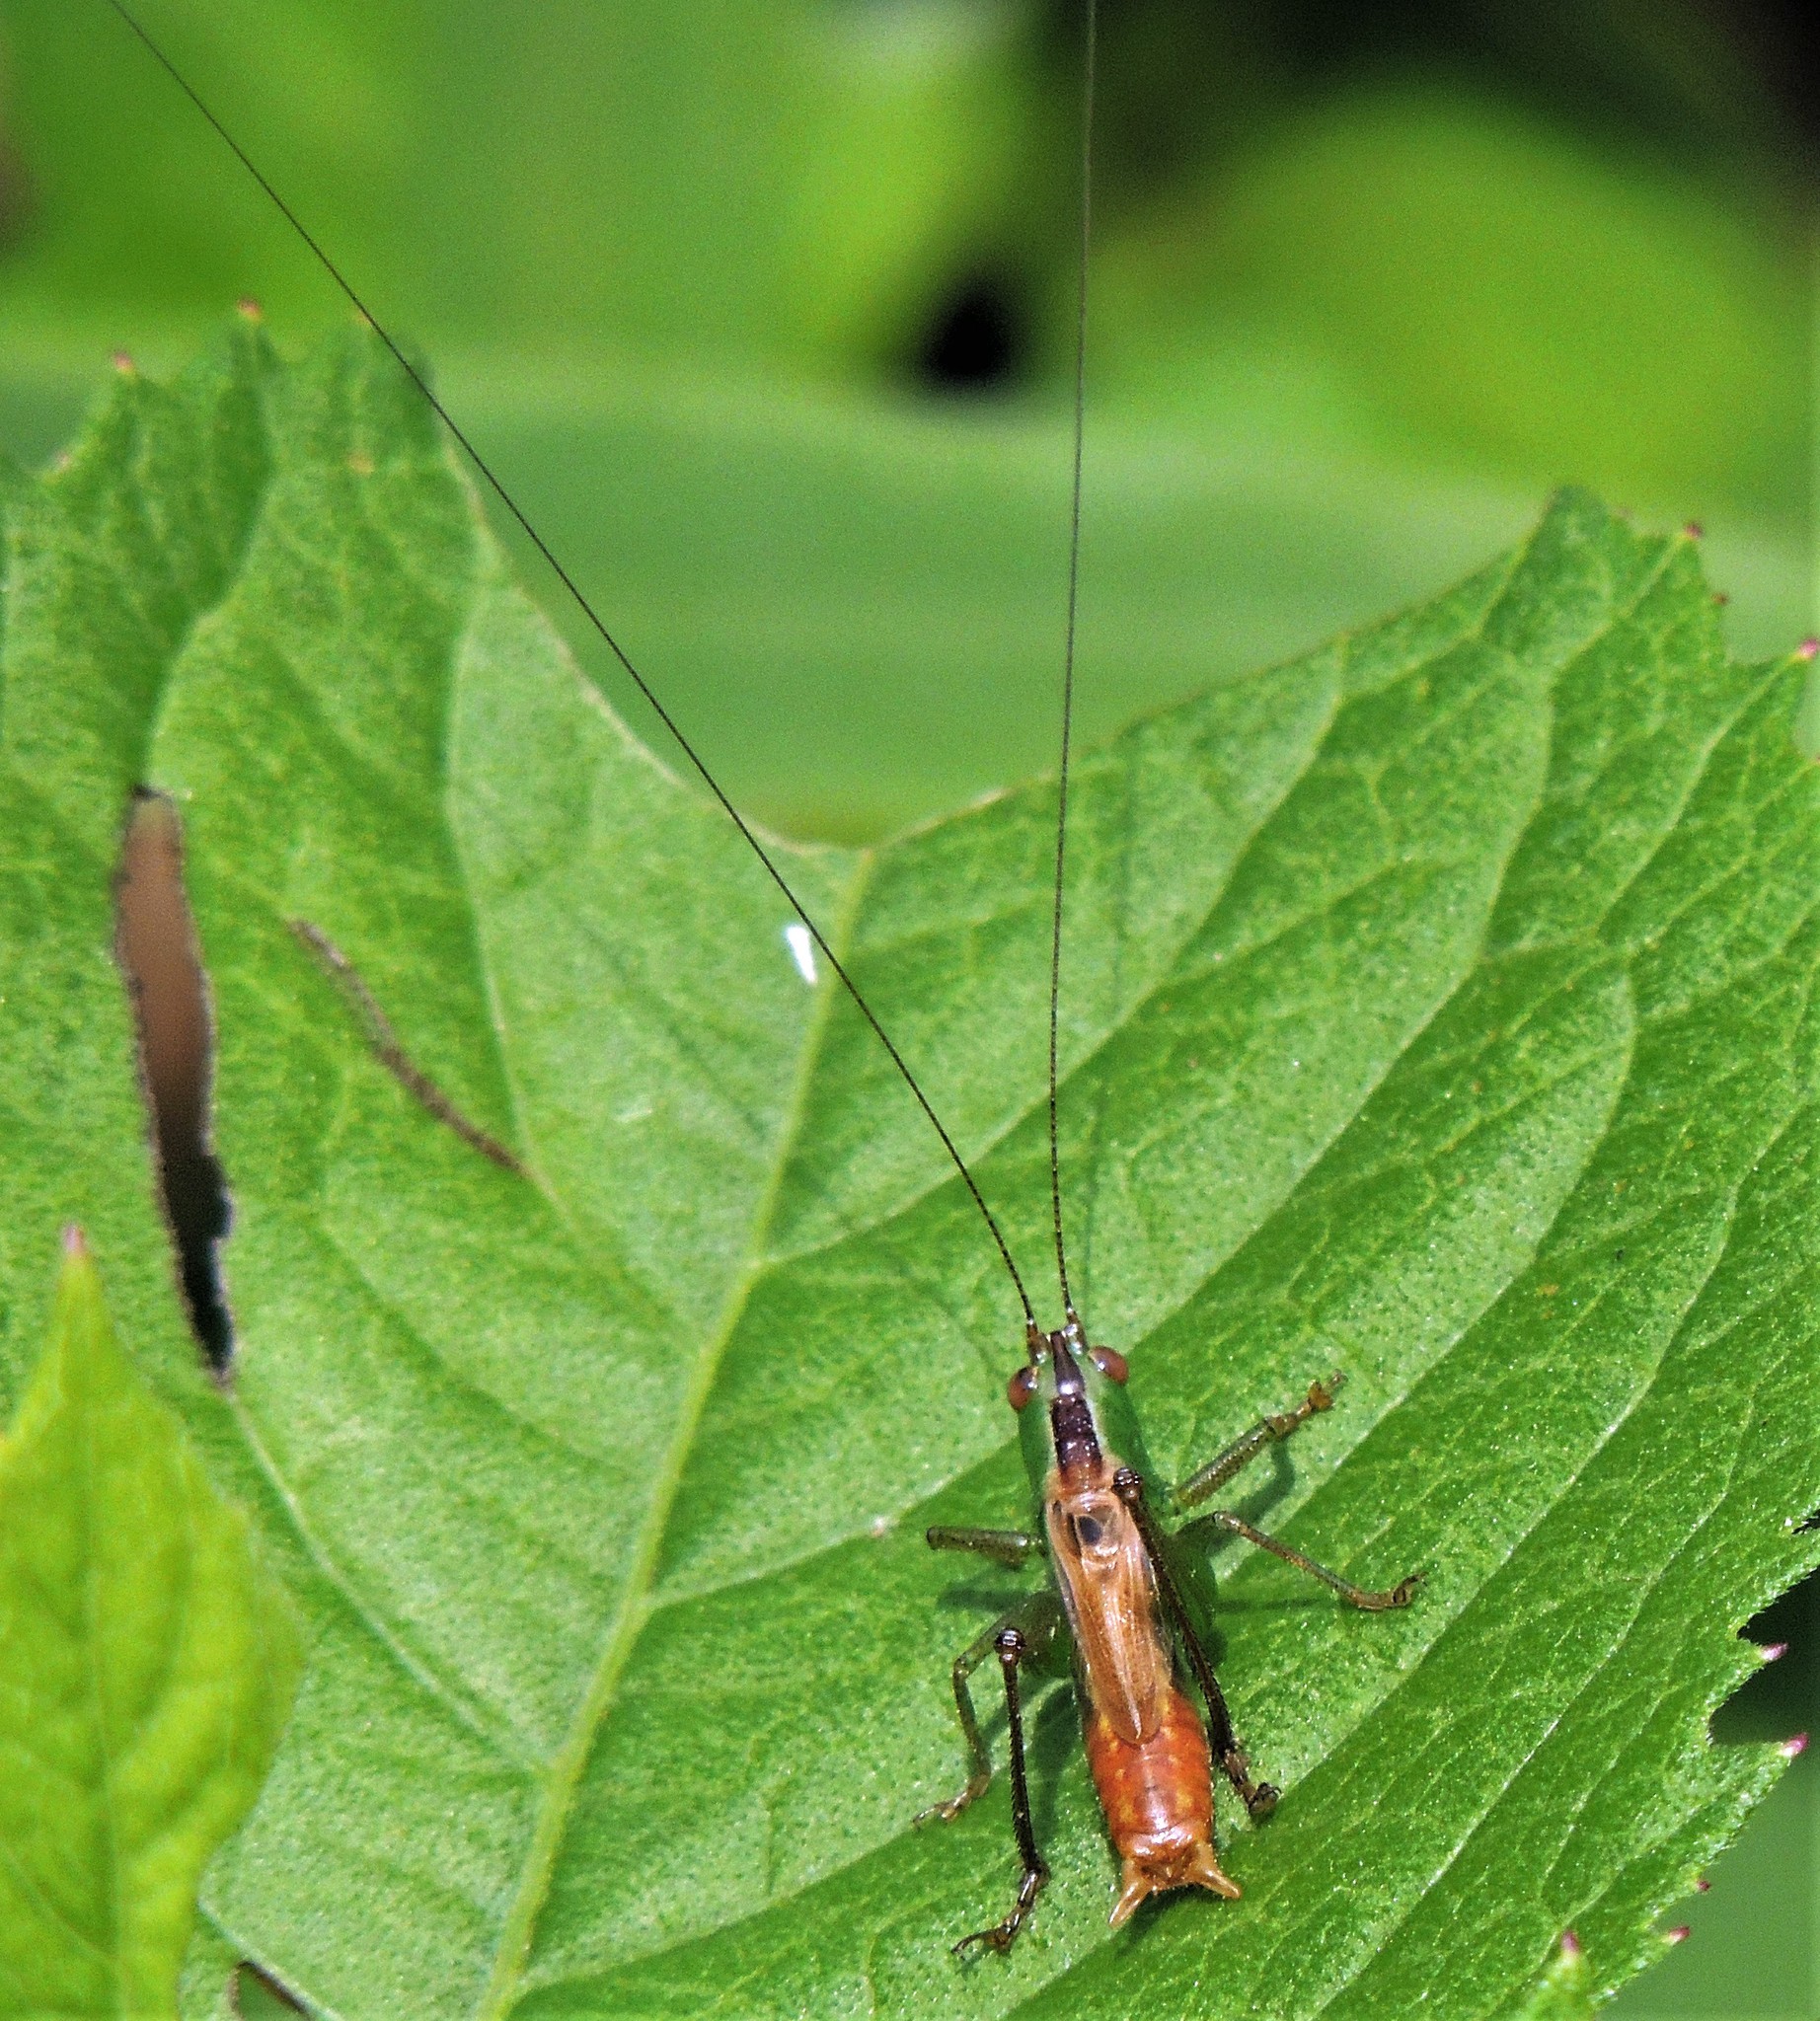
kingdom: Animalia
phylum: Arthropoda
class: Insecta
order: Orthoptera
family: Tettigoniidae
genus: Conocephalus
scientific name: Conocephalus saltator
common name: Katydid
